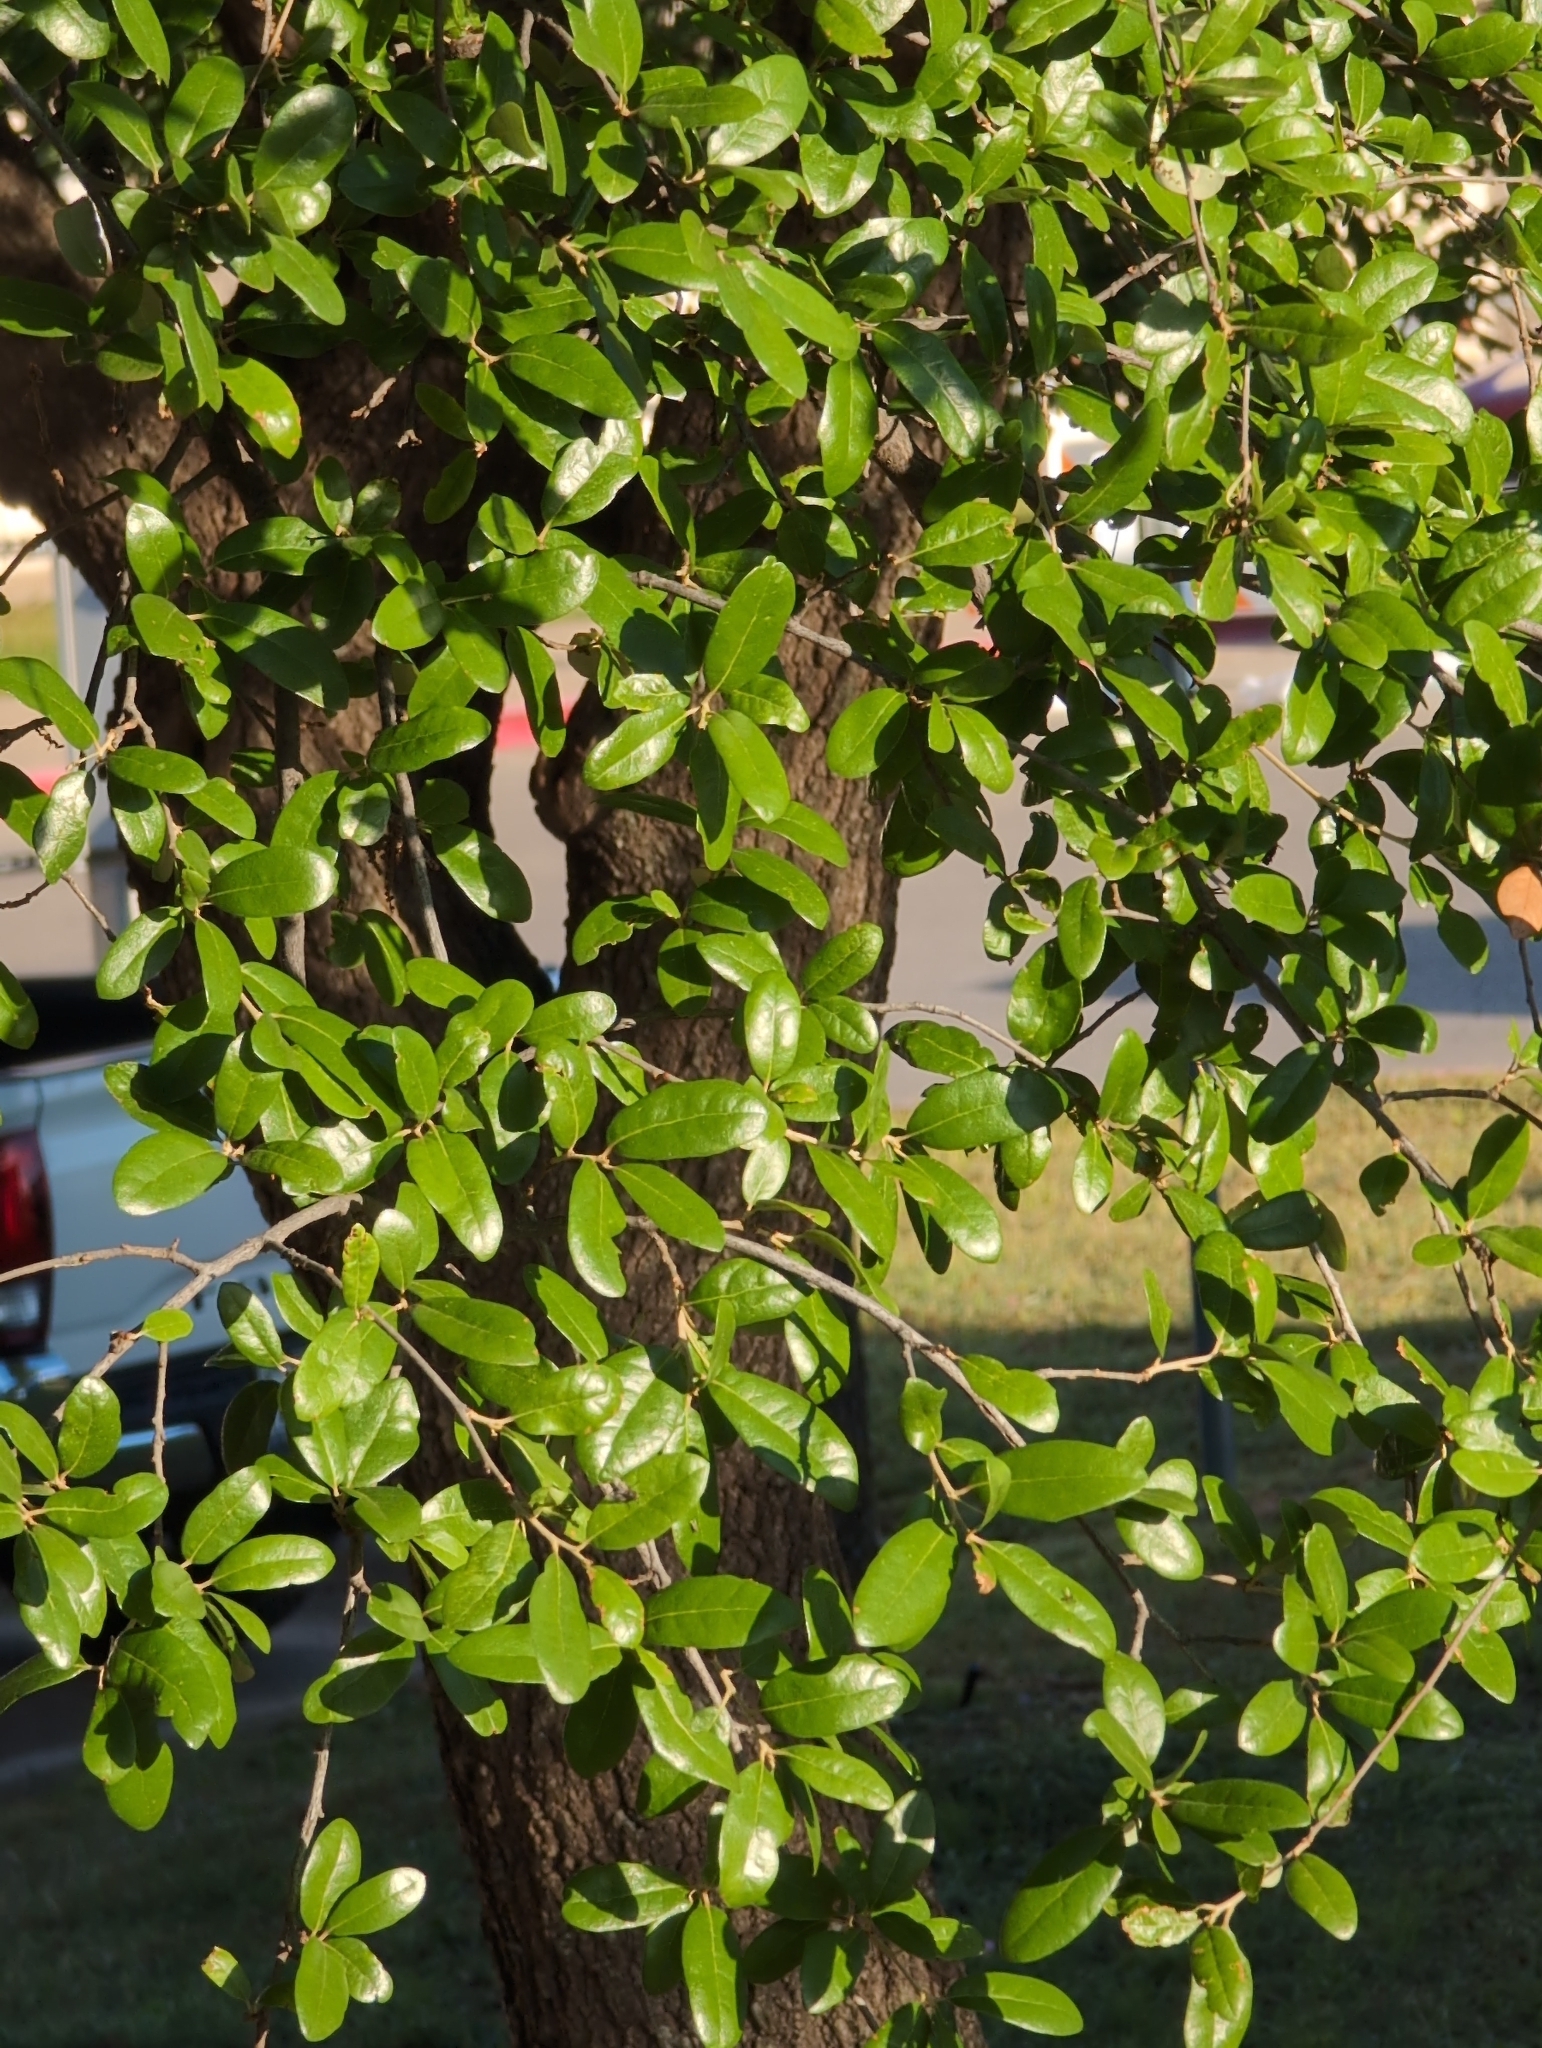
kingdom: Plantae
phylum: Tracheophyta
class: Magnoliopsida
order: Fagales
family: Fagaceae
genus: Quercus
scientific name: Quercus fusiformis
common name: Texas live oak
